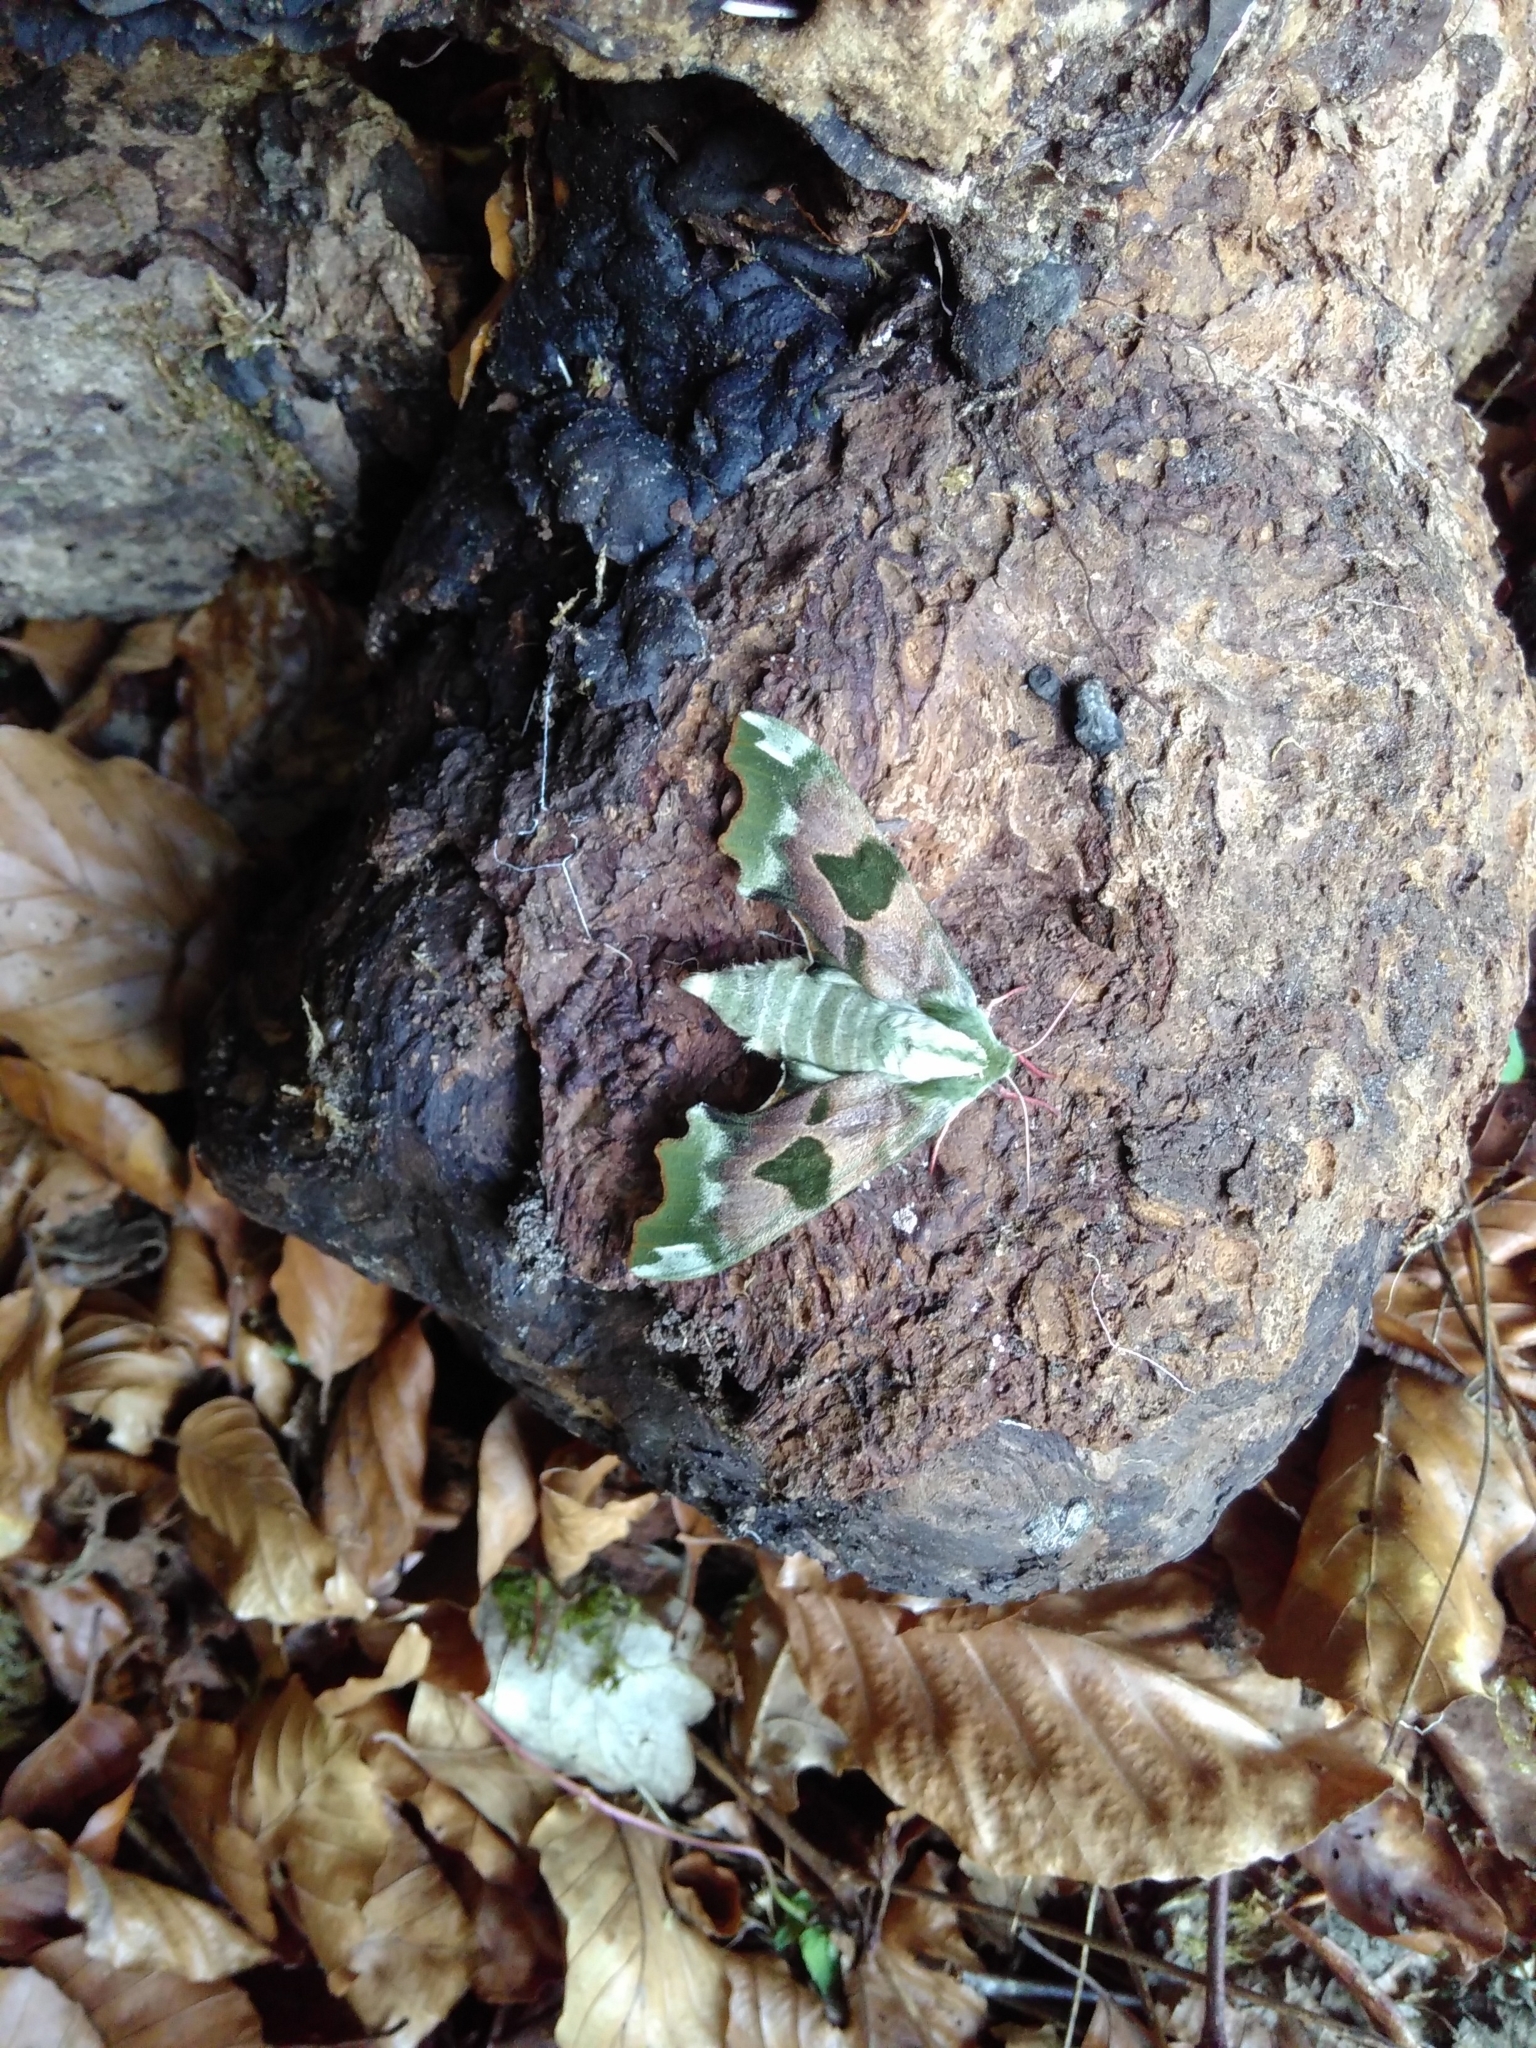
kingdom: Animalia
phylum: Arthropoda
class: Insecta
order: Lepidoptera
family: Sphingidae
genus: Mimas
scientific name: Mimas tiliae
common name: Lime hawk-moth
